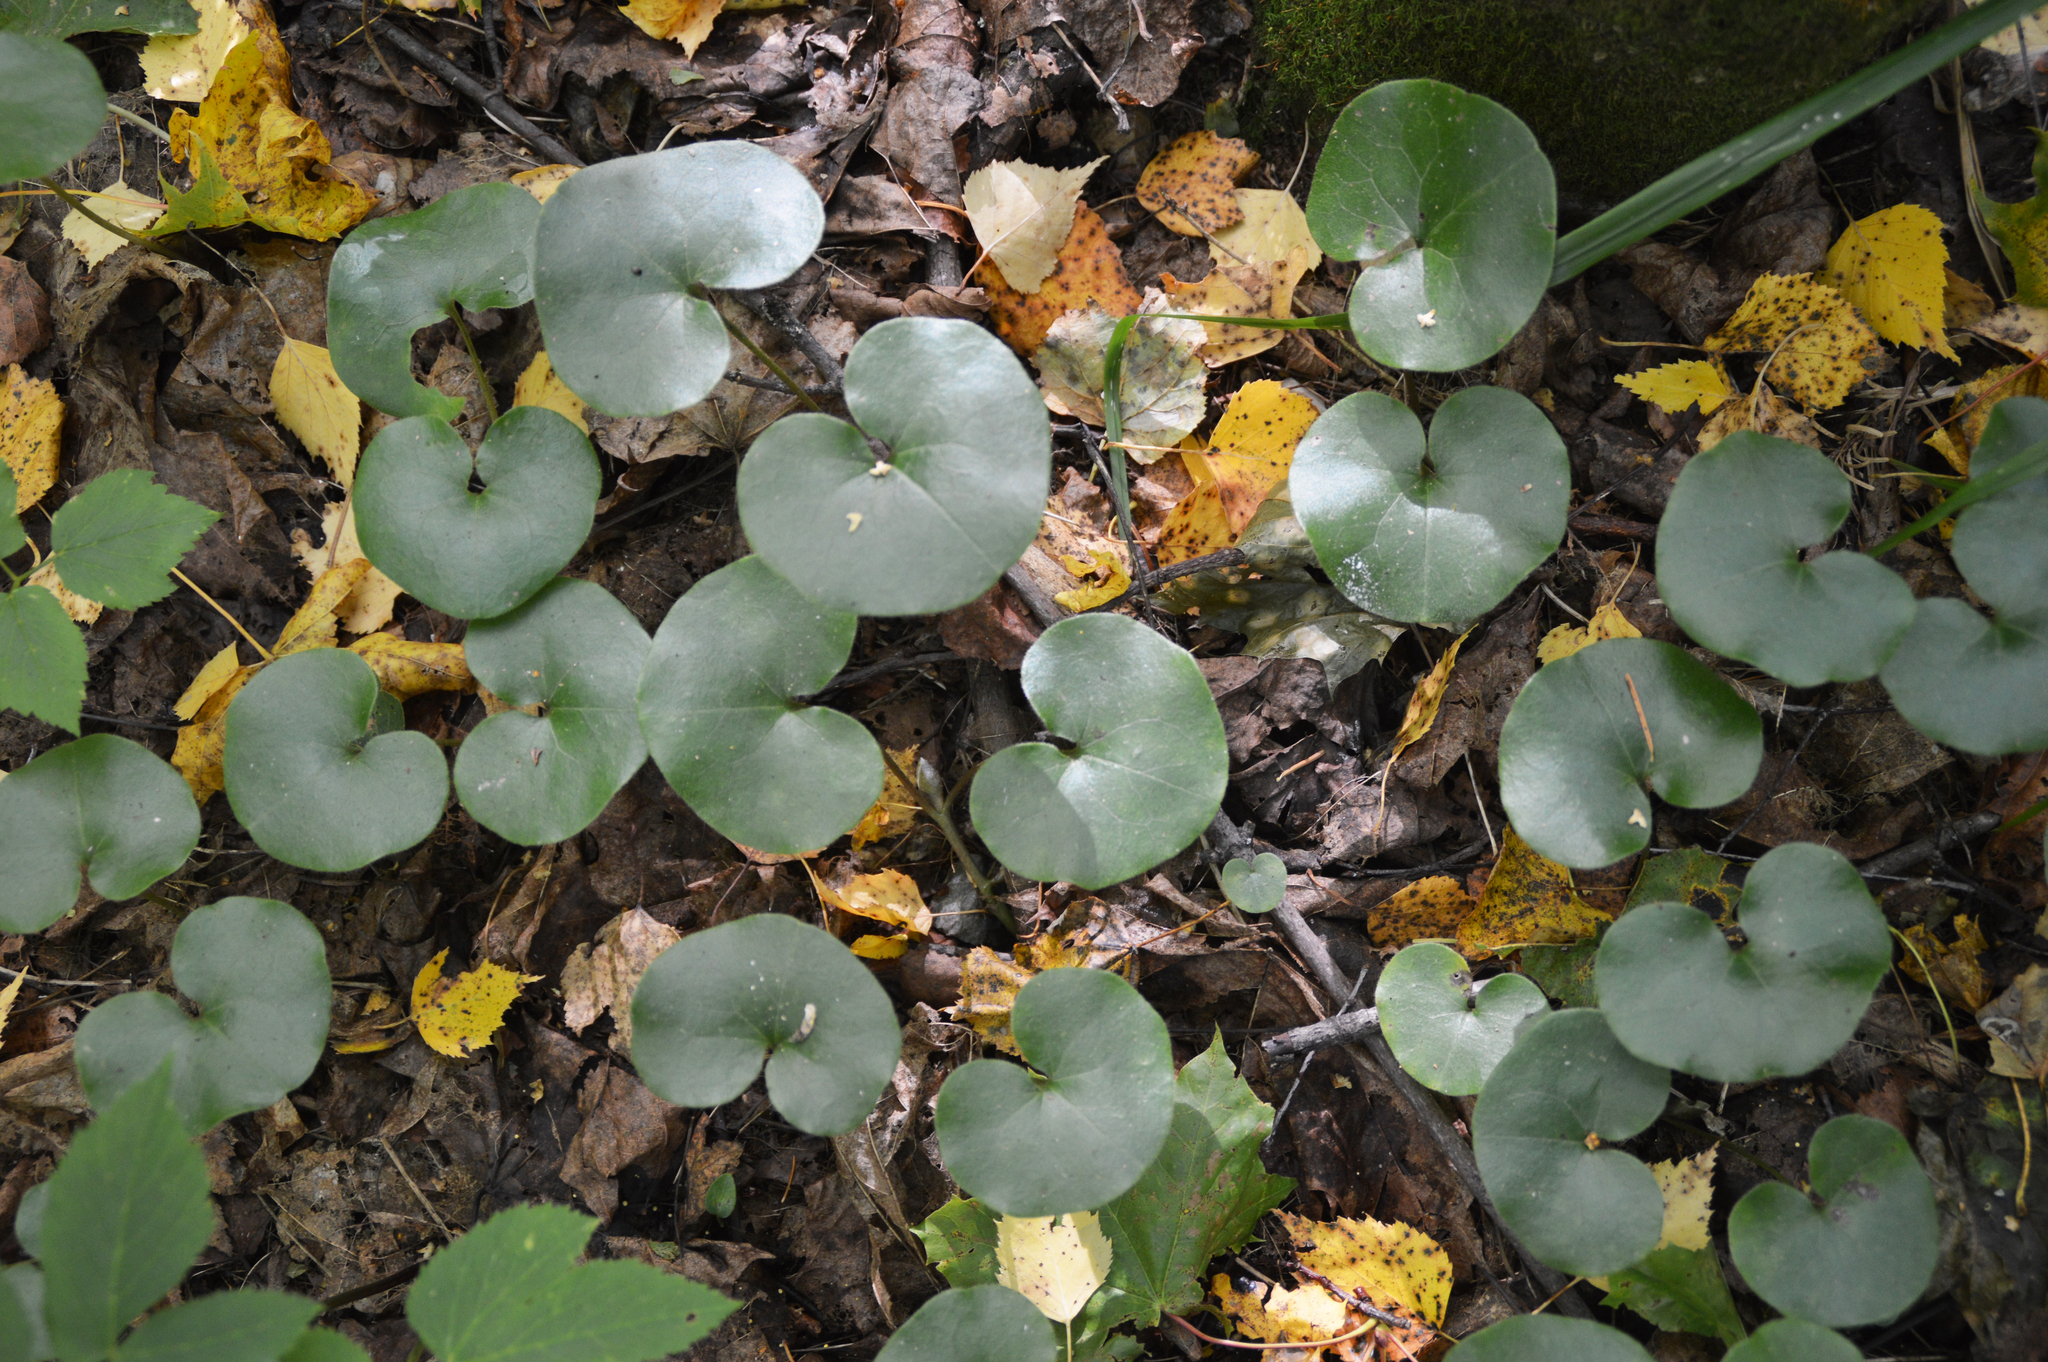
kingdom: Plantae
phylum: Tracheophyta
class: Magnoliopsida
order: Piperales
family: Aristolochiaceae
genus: Asarum
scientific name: Asarum europaeum
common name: Asarabacca
